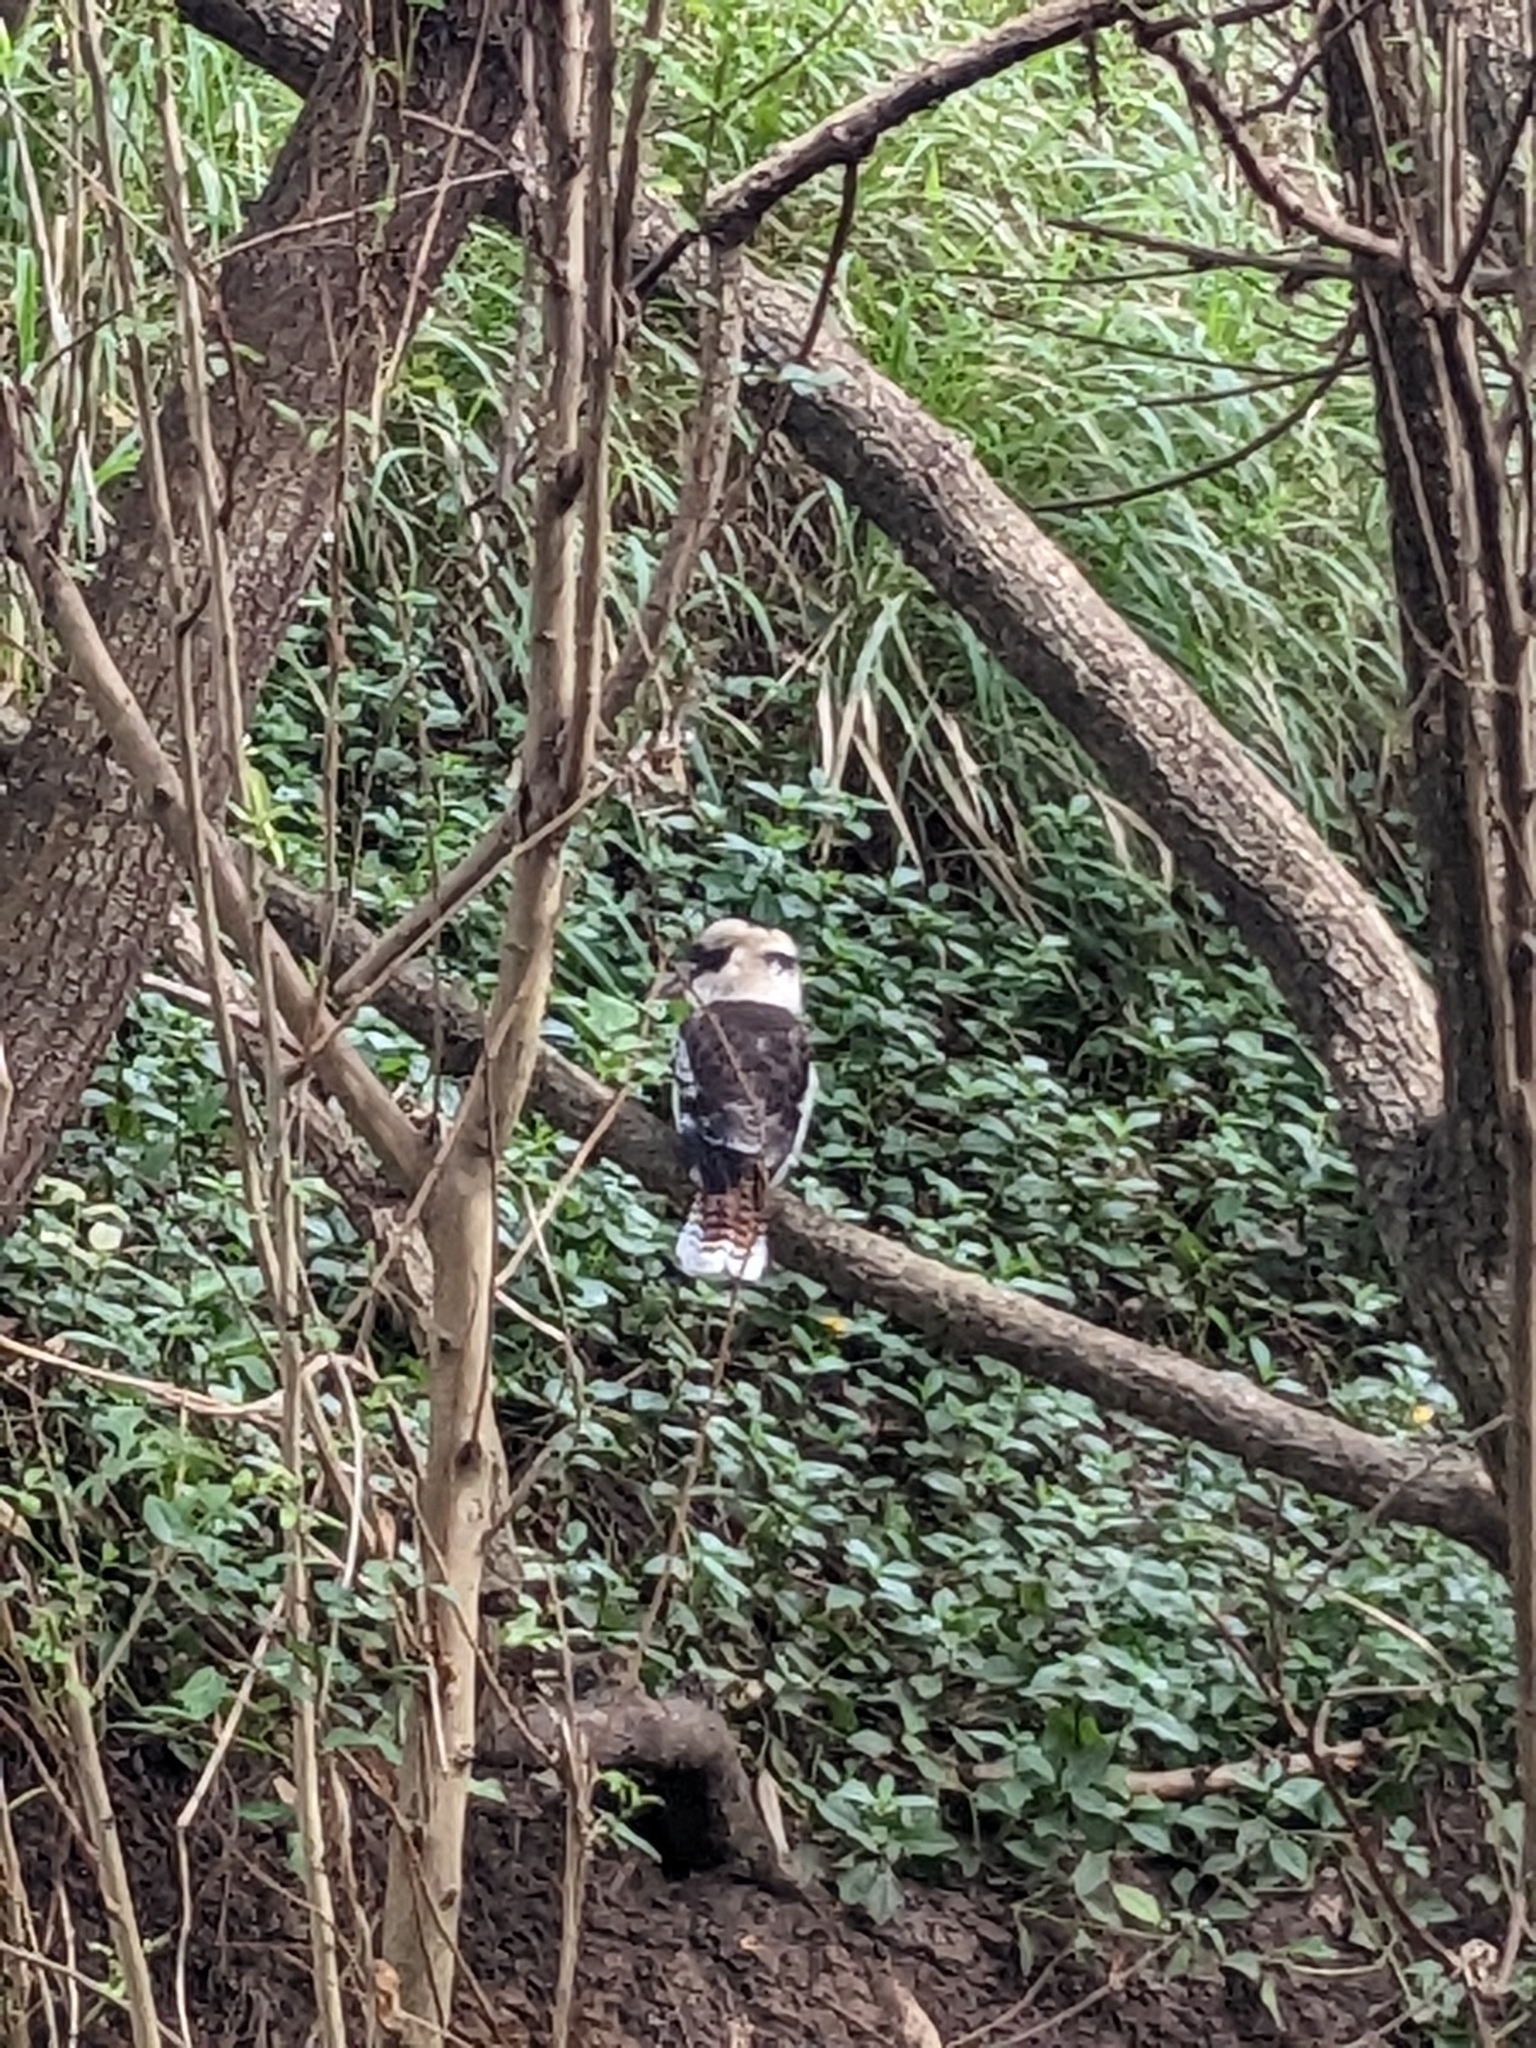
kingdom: Animalia
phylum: Chordata
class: Aves
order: Coraciiformes
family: Alcedinidae
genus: Dacelo
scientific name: Dacelo novaeguineae
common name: Laughing kookaburra
